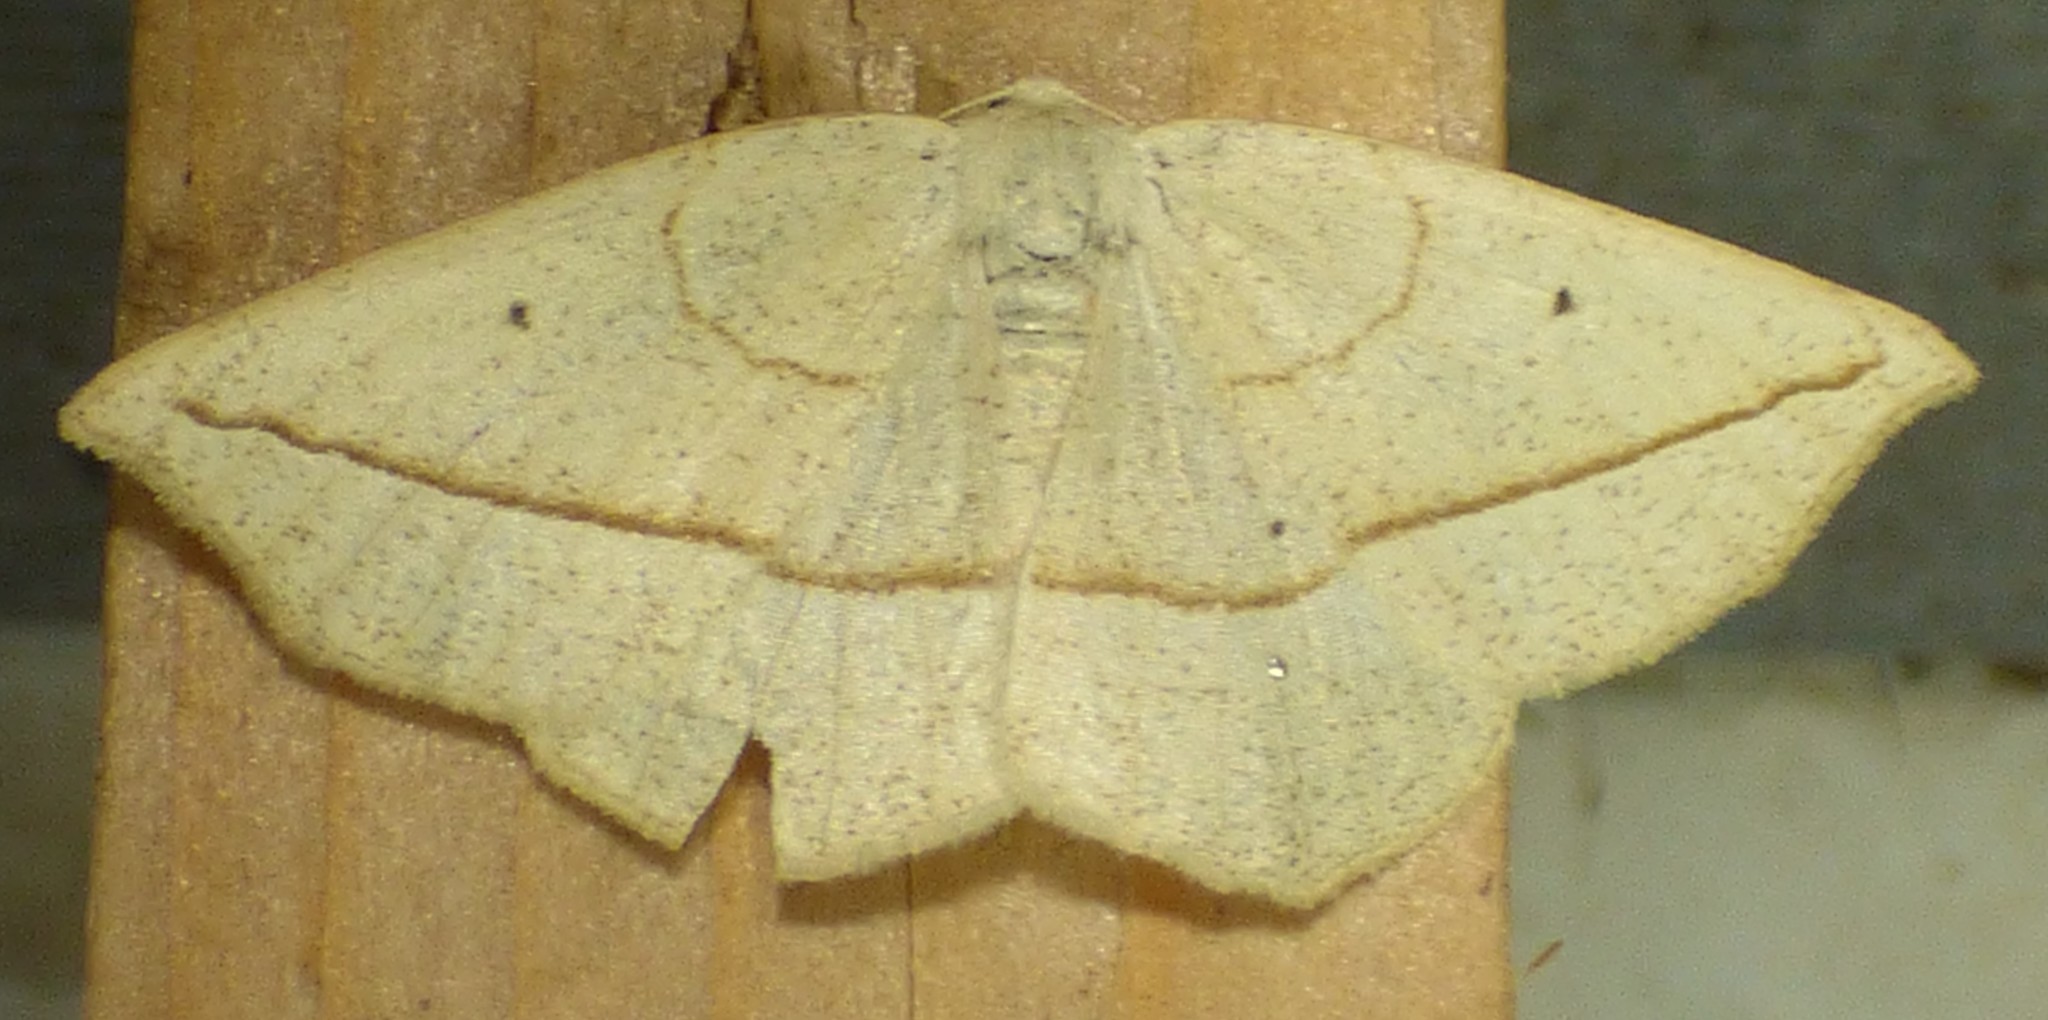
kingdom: Animalia
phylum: Arthropoda
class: Insecta
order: Lepidoptera
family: Geometridae
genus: Eusarca
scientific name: Eusarca confusaria
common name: Confused eusarca
